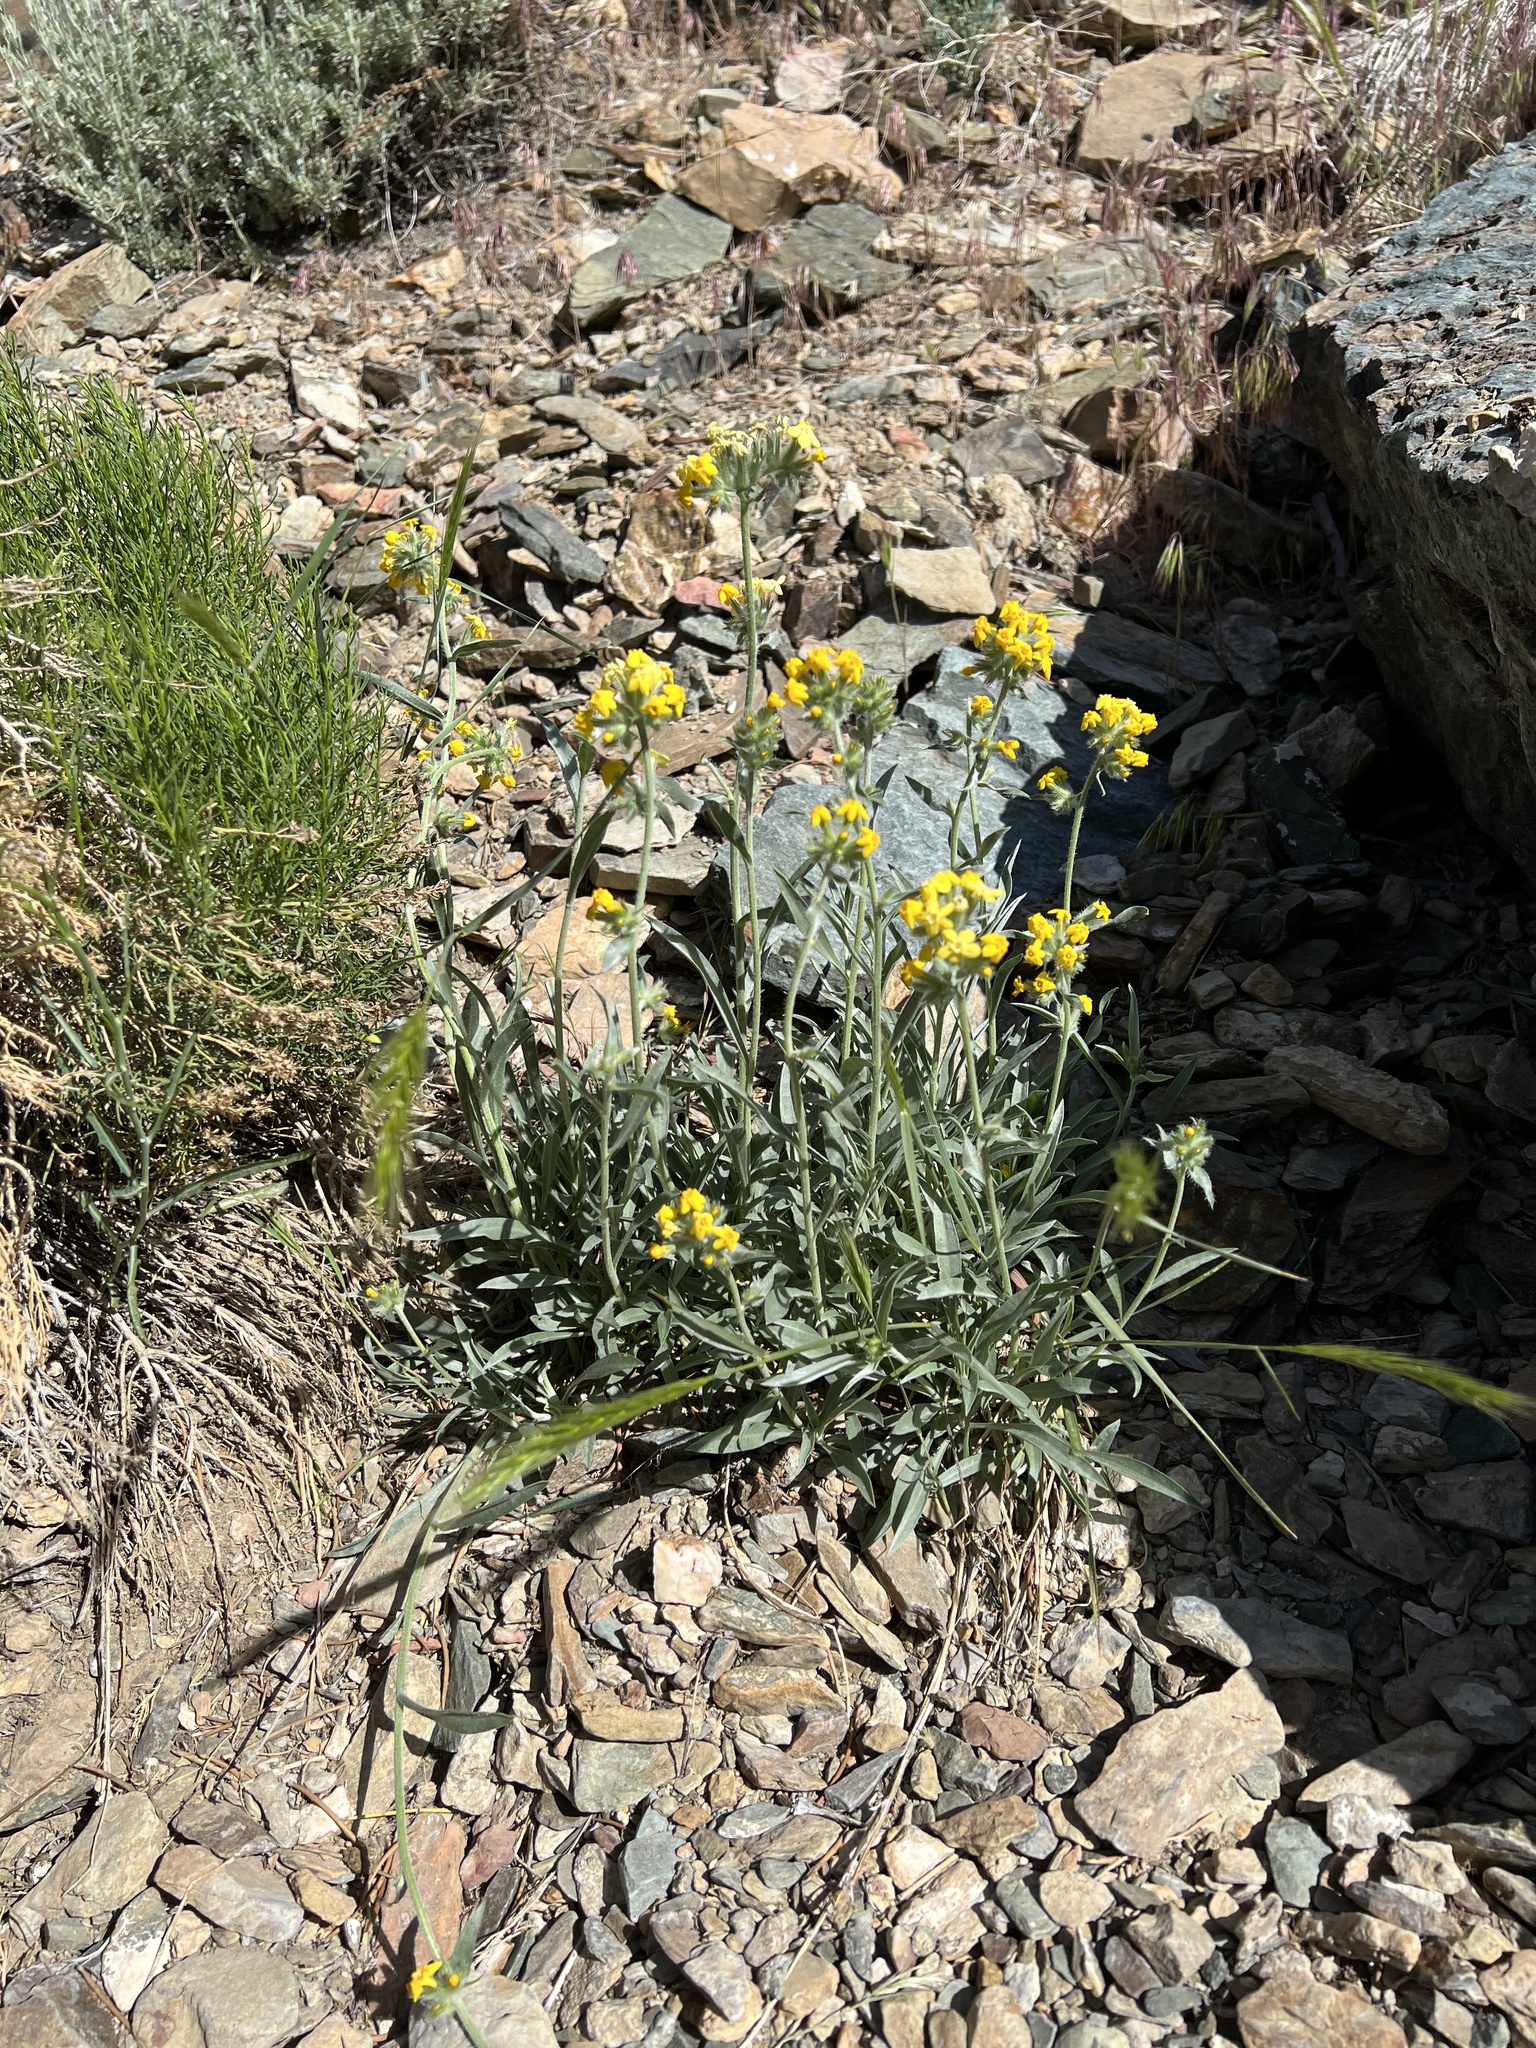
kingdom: Plantae
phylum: Tracheophyta
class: Magnoliopsida
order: Boraginales
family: Boraginaceae
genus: Oreocarya
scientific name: Oreocarya confertiflora
